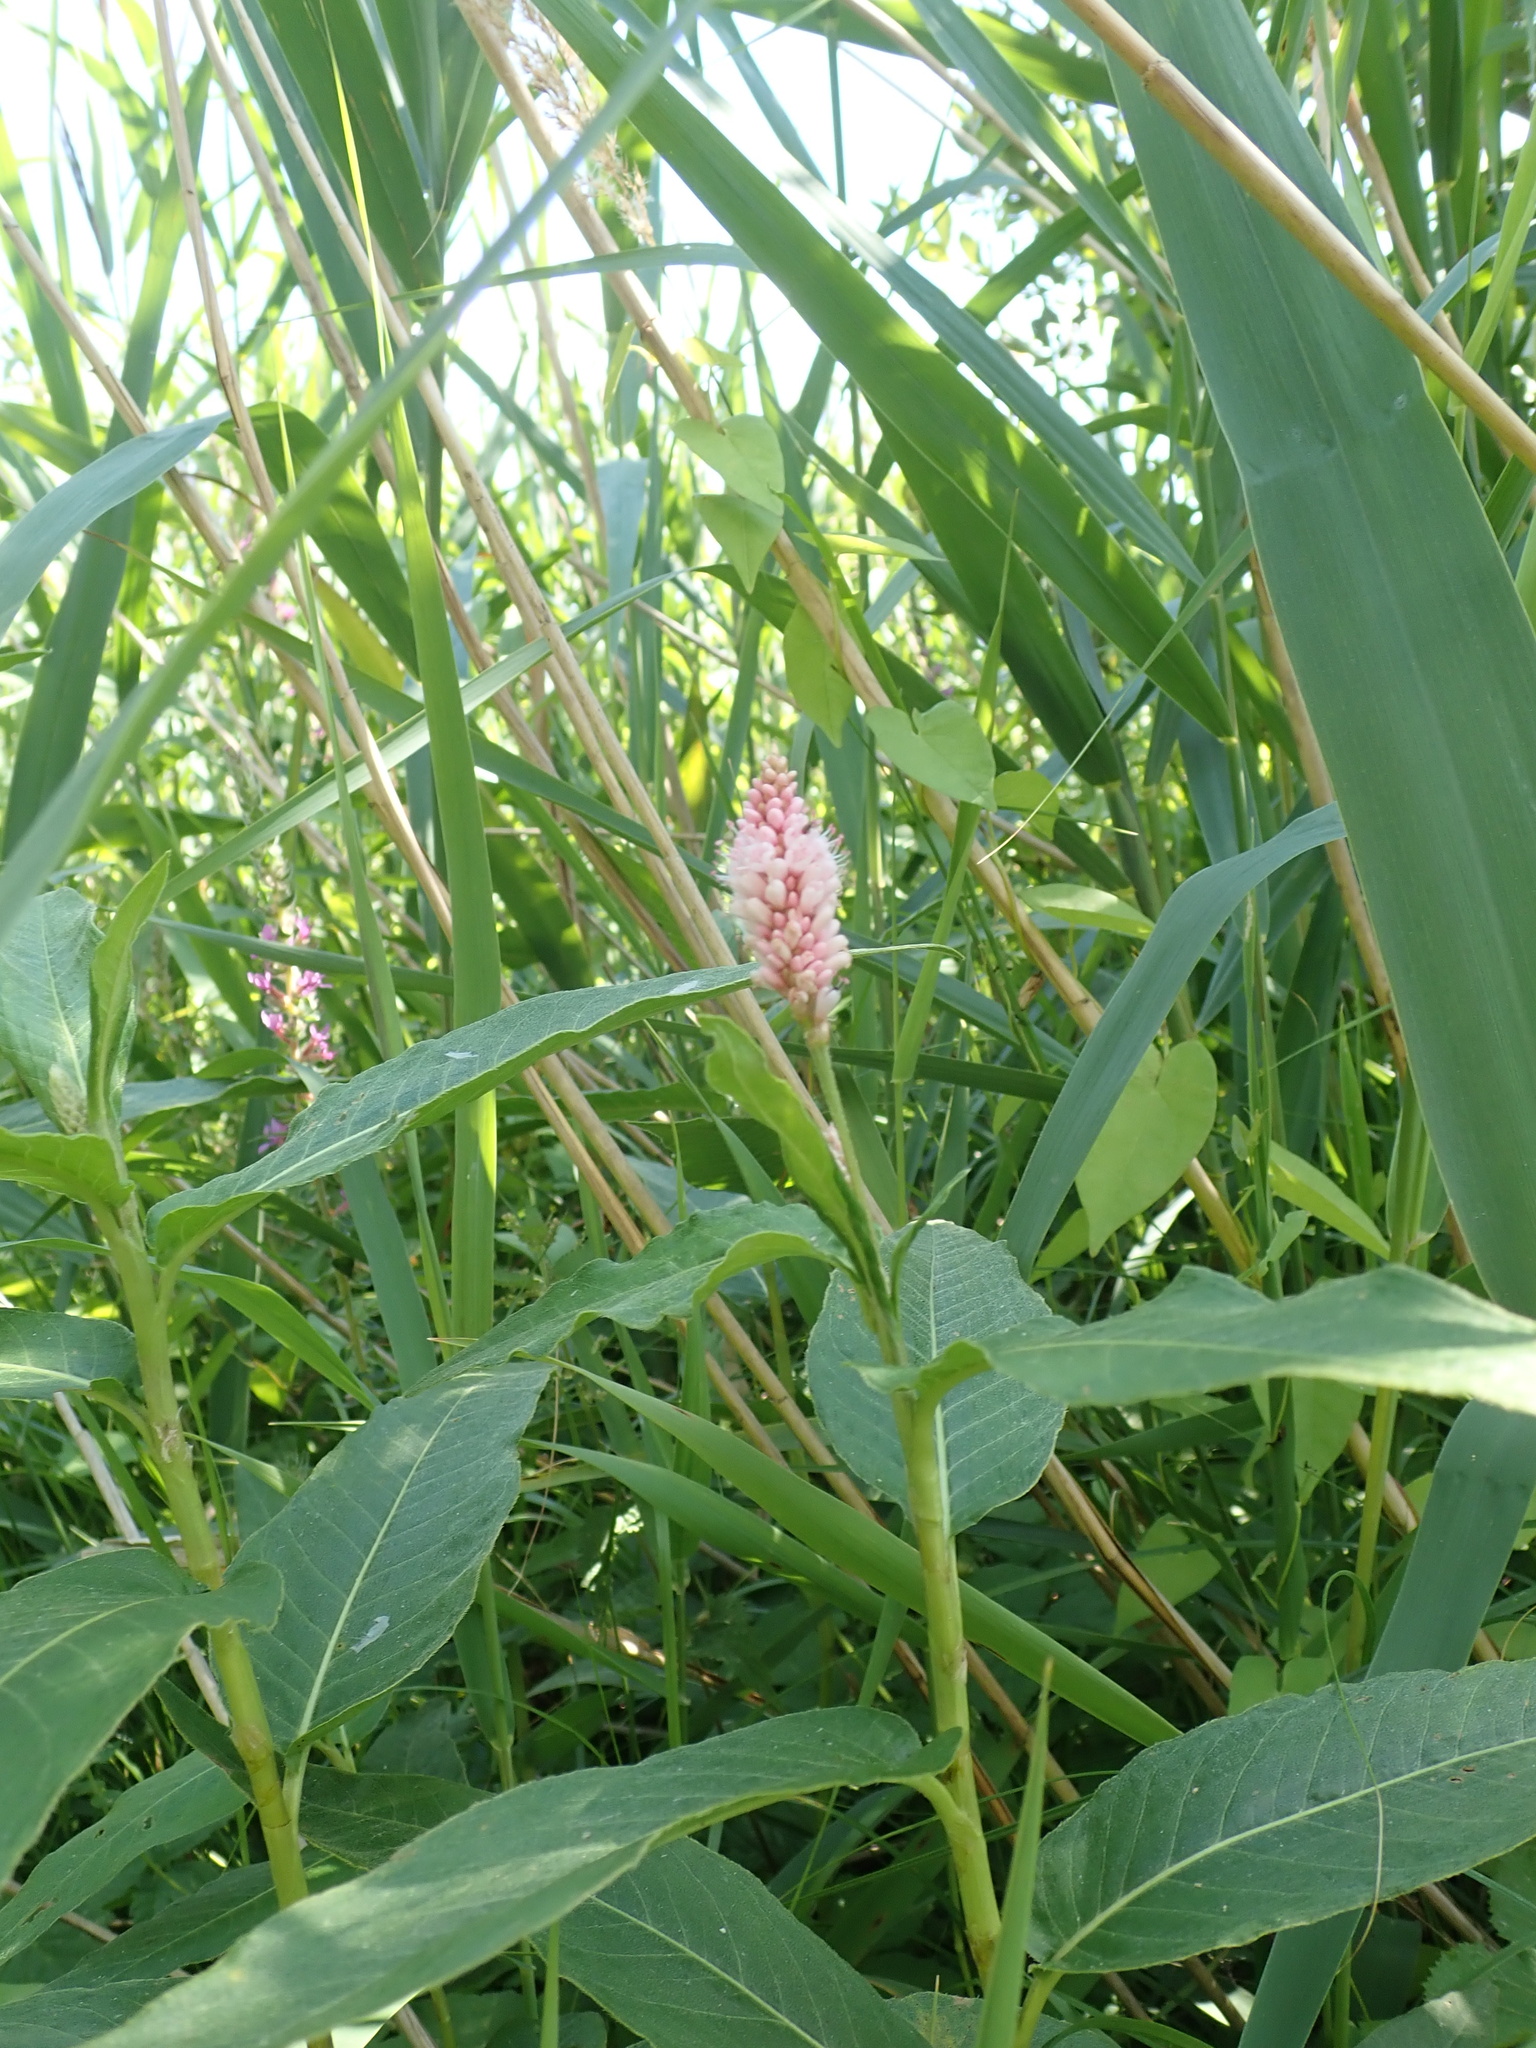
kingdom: Plantae
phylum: Tracheophyta
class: Magnoliopsida
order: Caryophyllales
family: Polygonaceae
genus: Persicaria
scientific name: Persicaria amphibia
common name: Amphibious bistort
